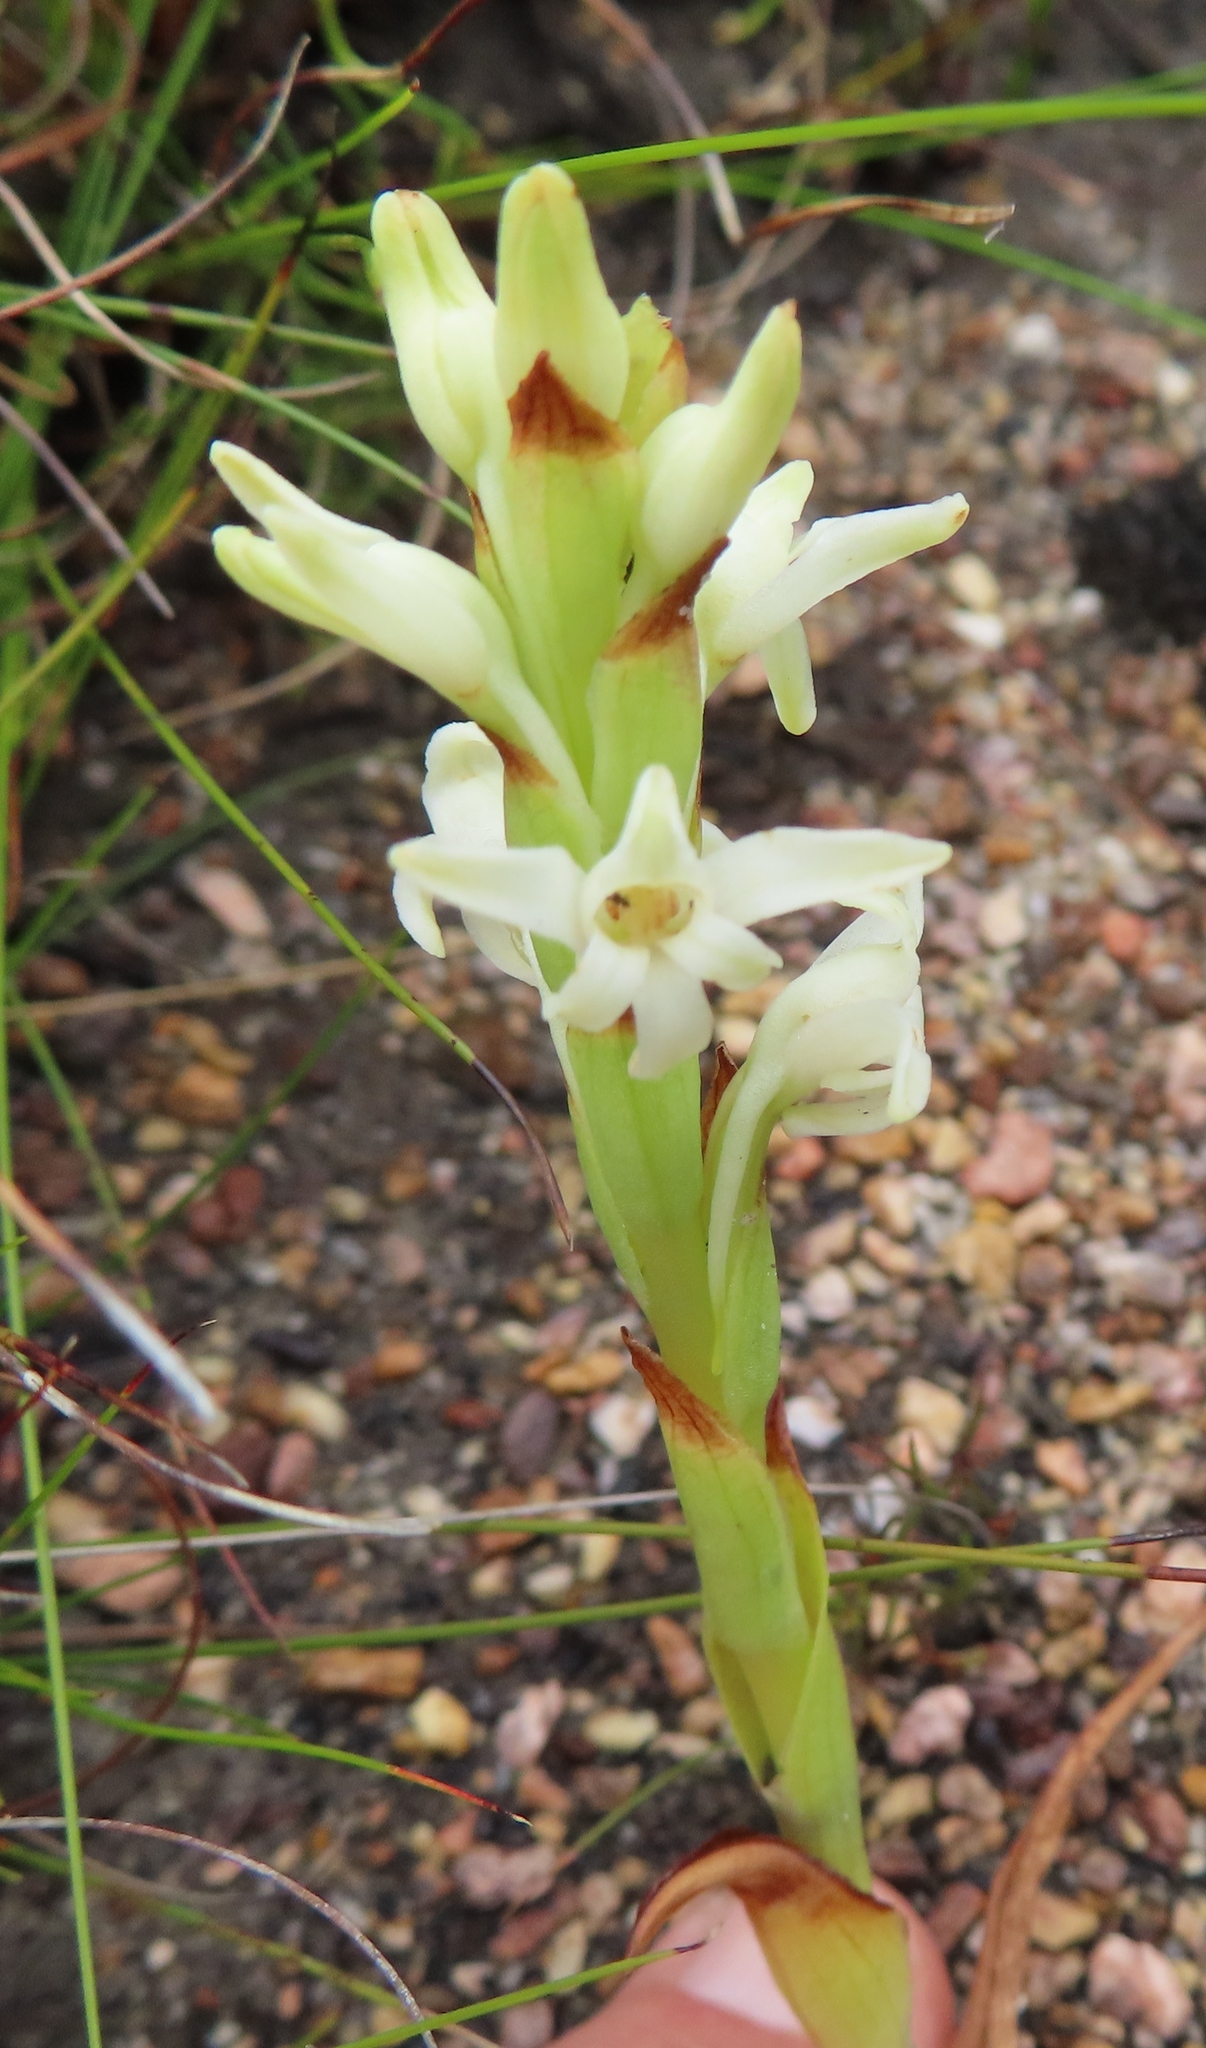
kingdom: Plantae
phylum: Tracheophyta
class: Liliopsida
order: Asparagales
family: Orchidaceae
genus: Satyrium
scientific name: Satyrium stenopetalum
